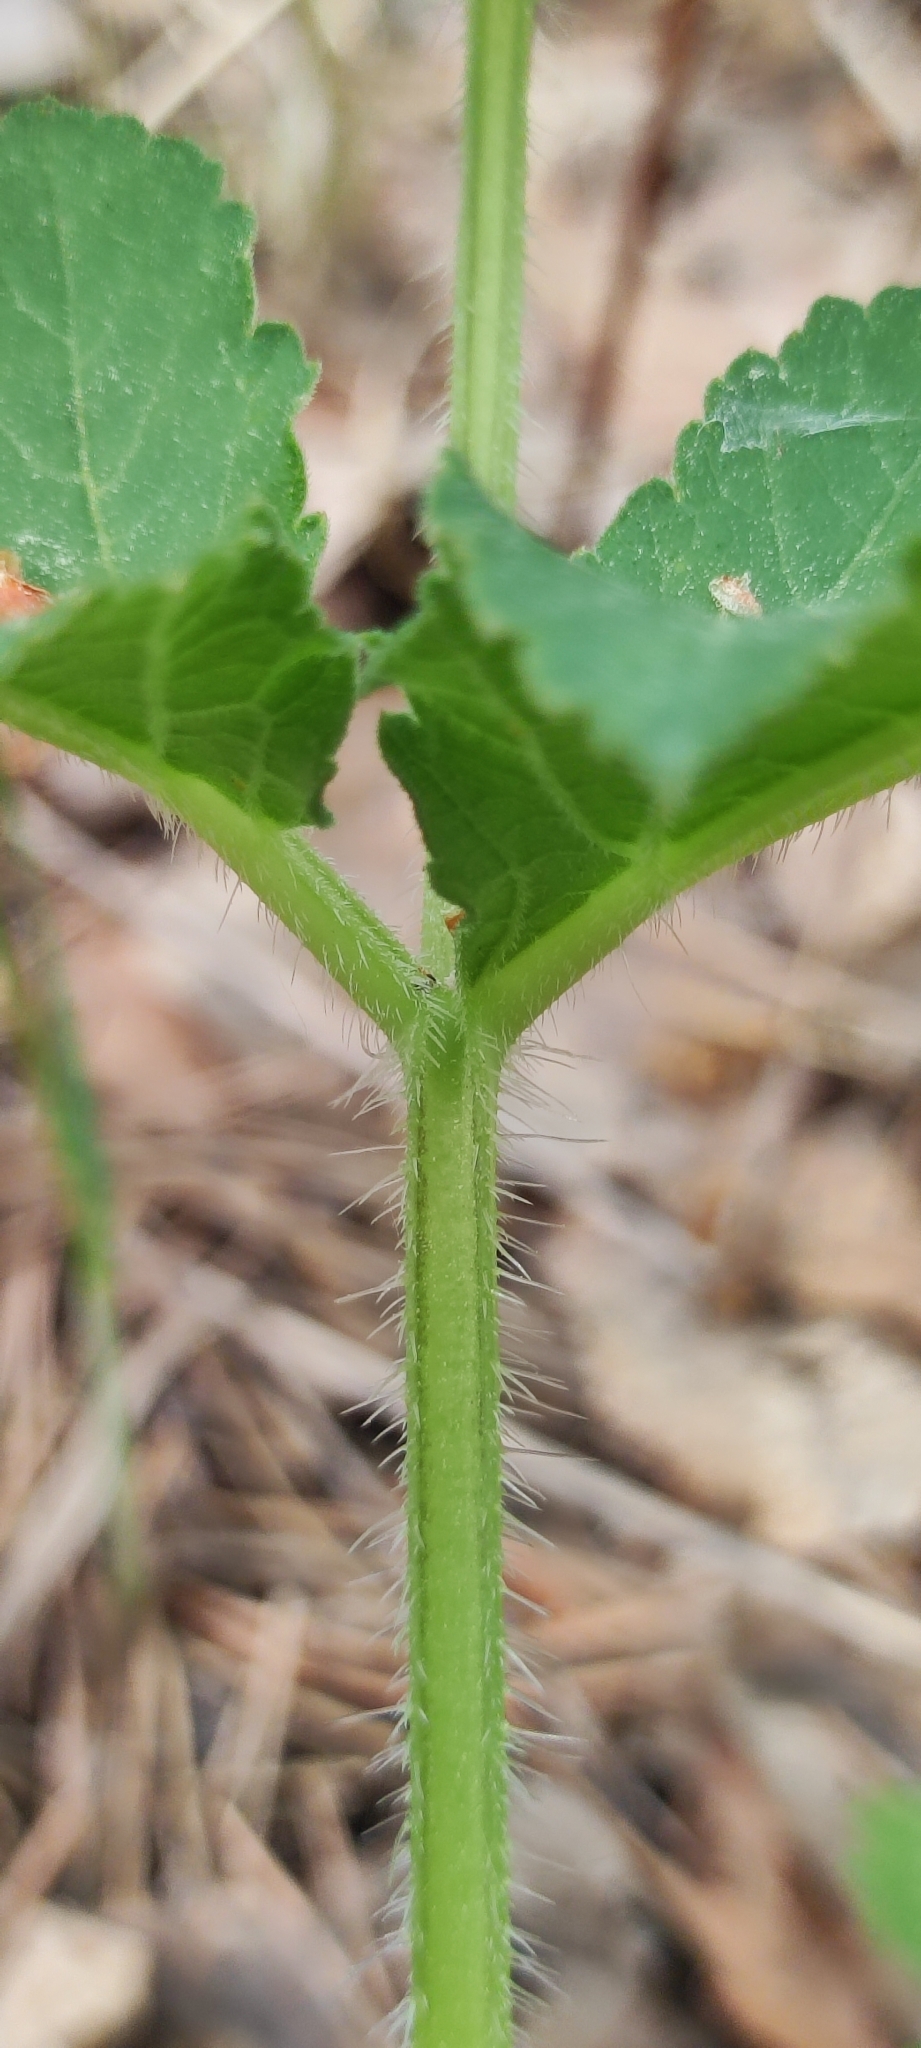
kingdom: Plantae
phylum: Tracheophyta
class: Magnoliopsida
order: Apiales
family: Apiaceae
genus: Heracleum
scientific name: Heracleum sphondylium
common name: Hogweed
